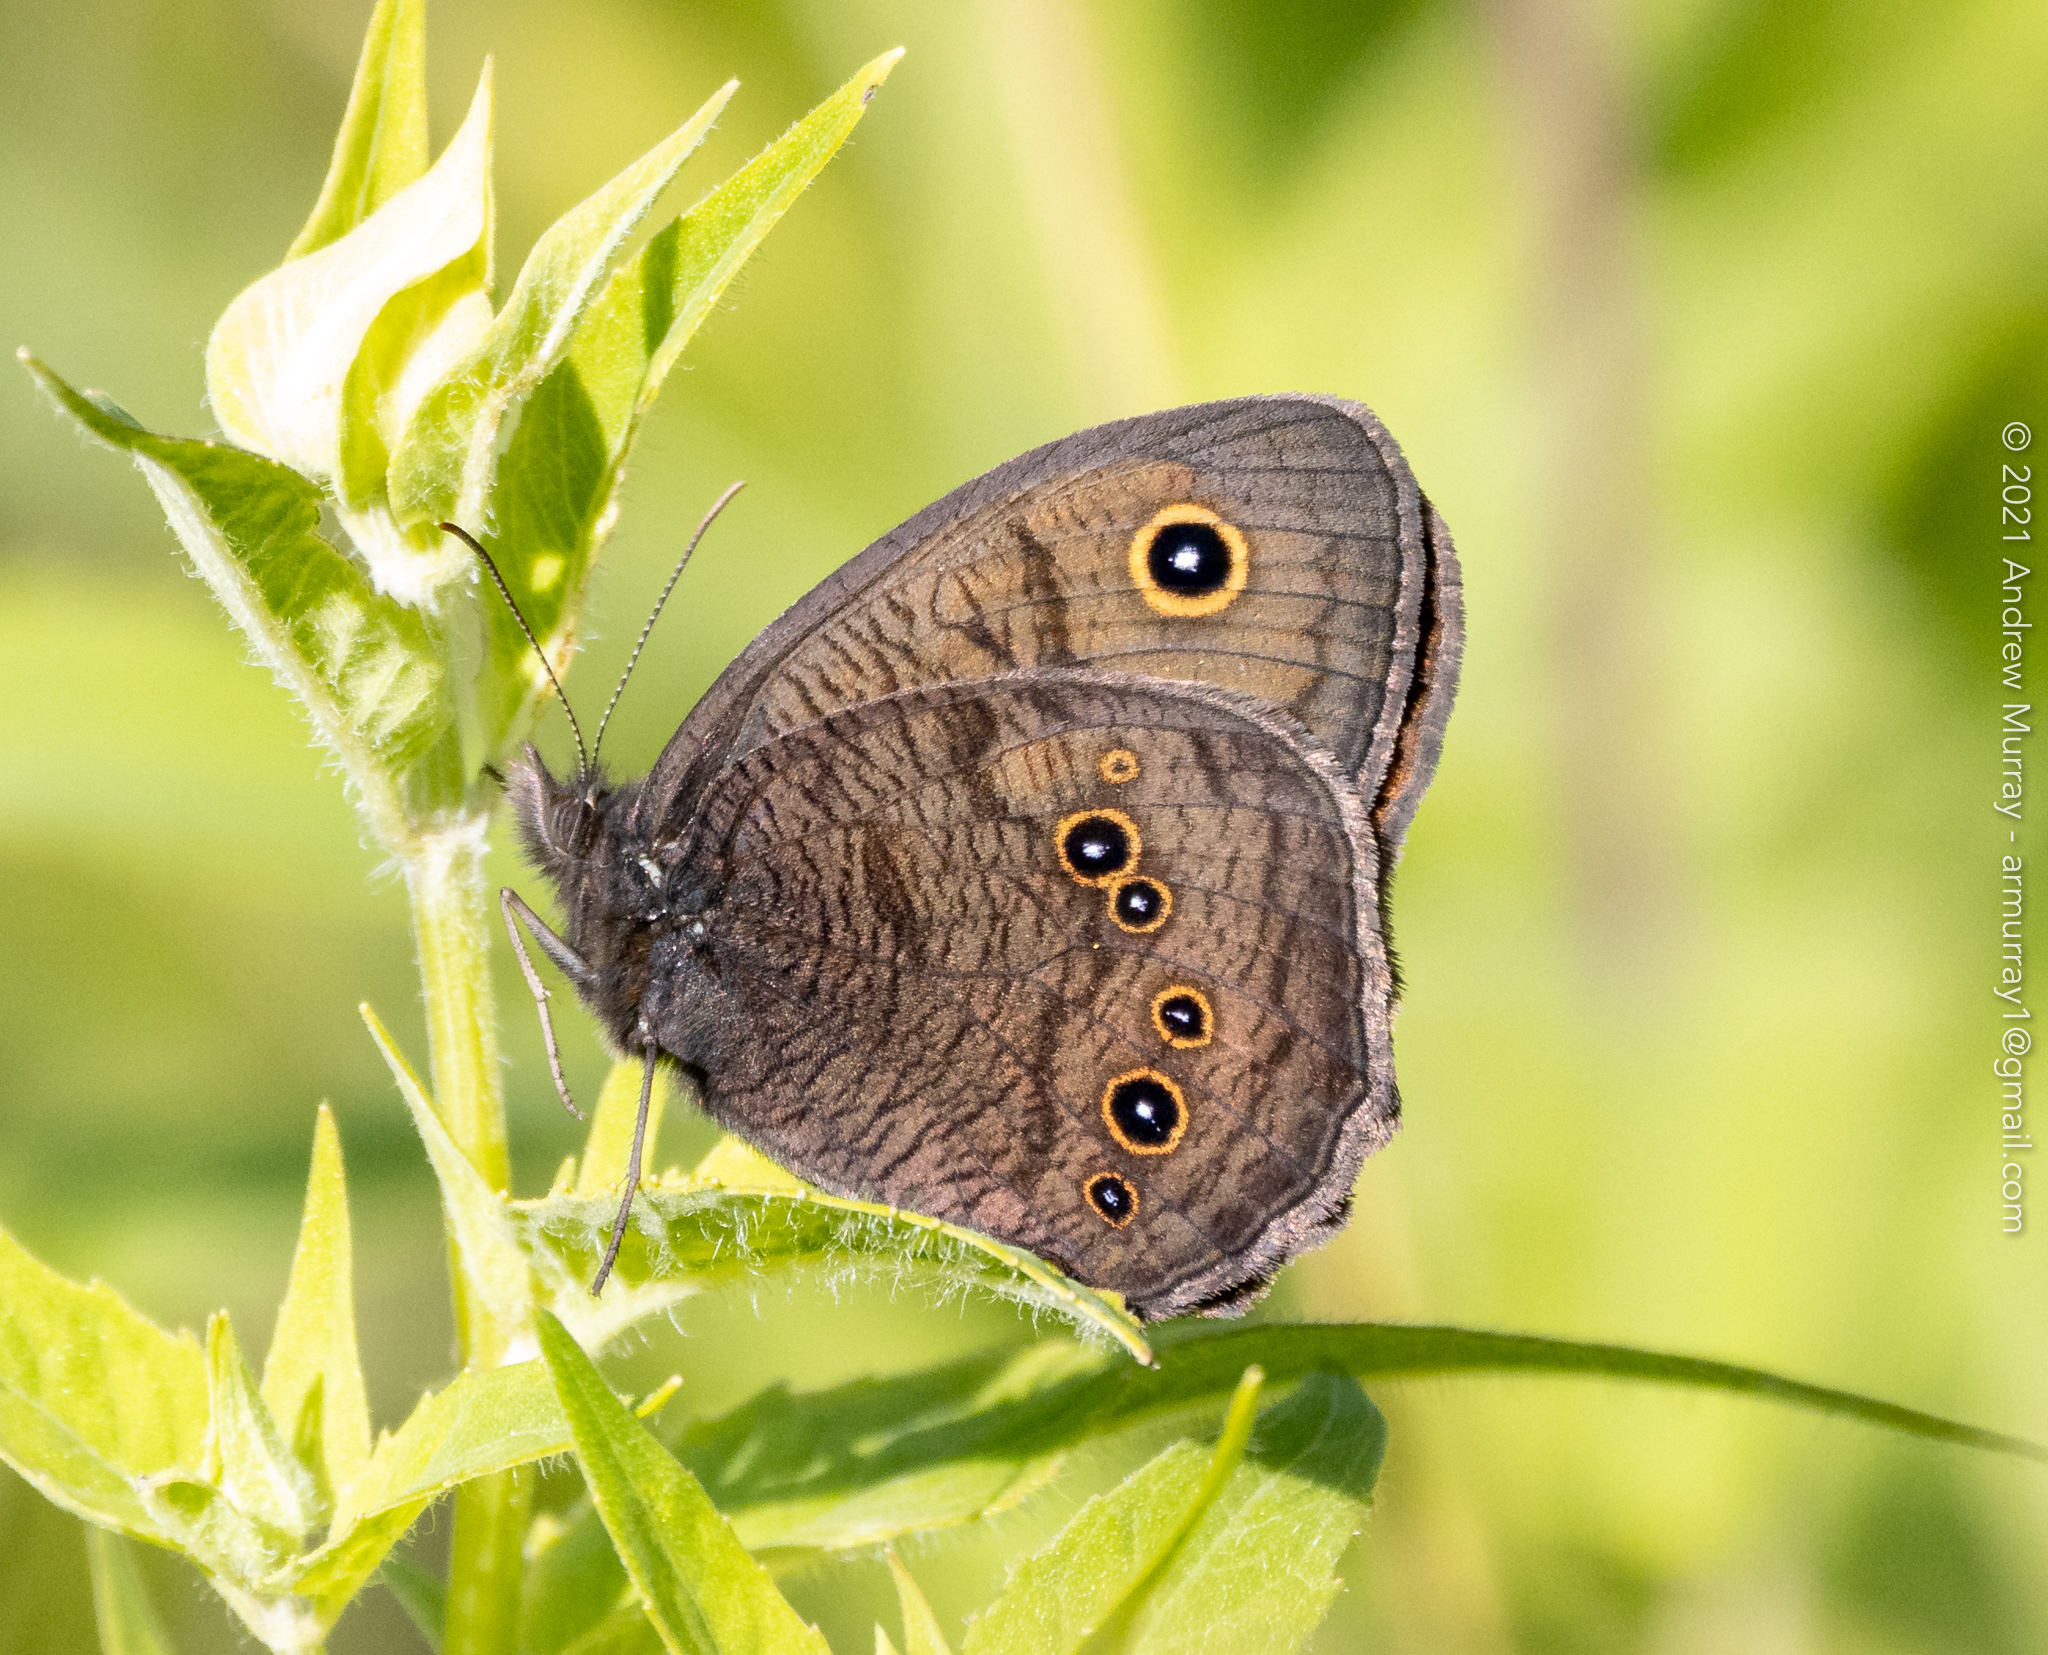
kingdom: Animalia
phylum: Arthropoda
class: Insecta
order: Lepidoptera
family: Nymphalidae
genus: Cercyonis
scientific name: Cercyonis pegala
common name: Common wood-nymph
